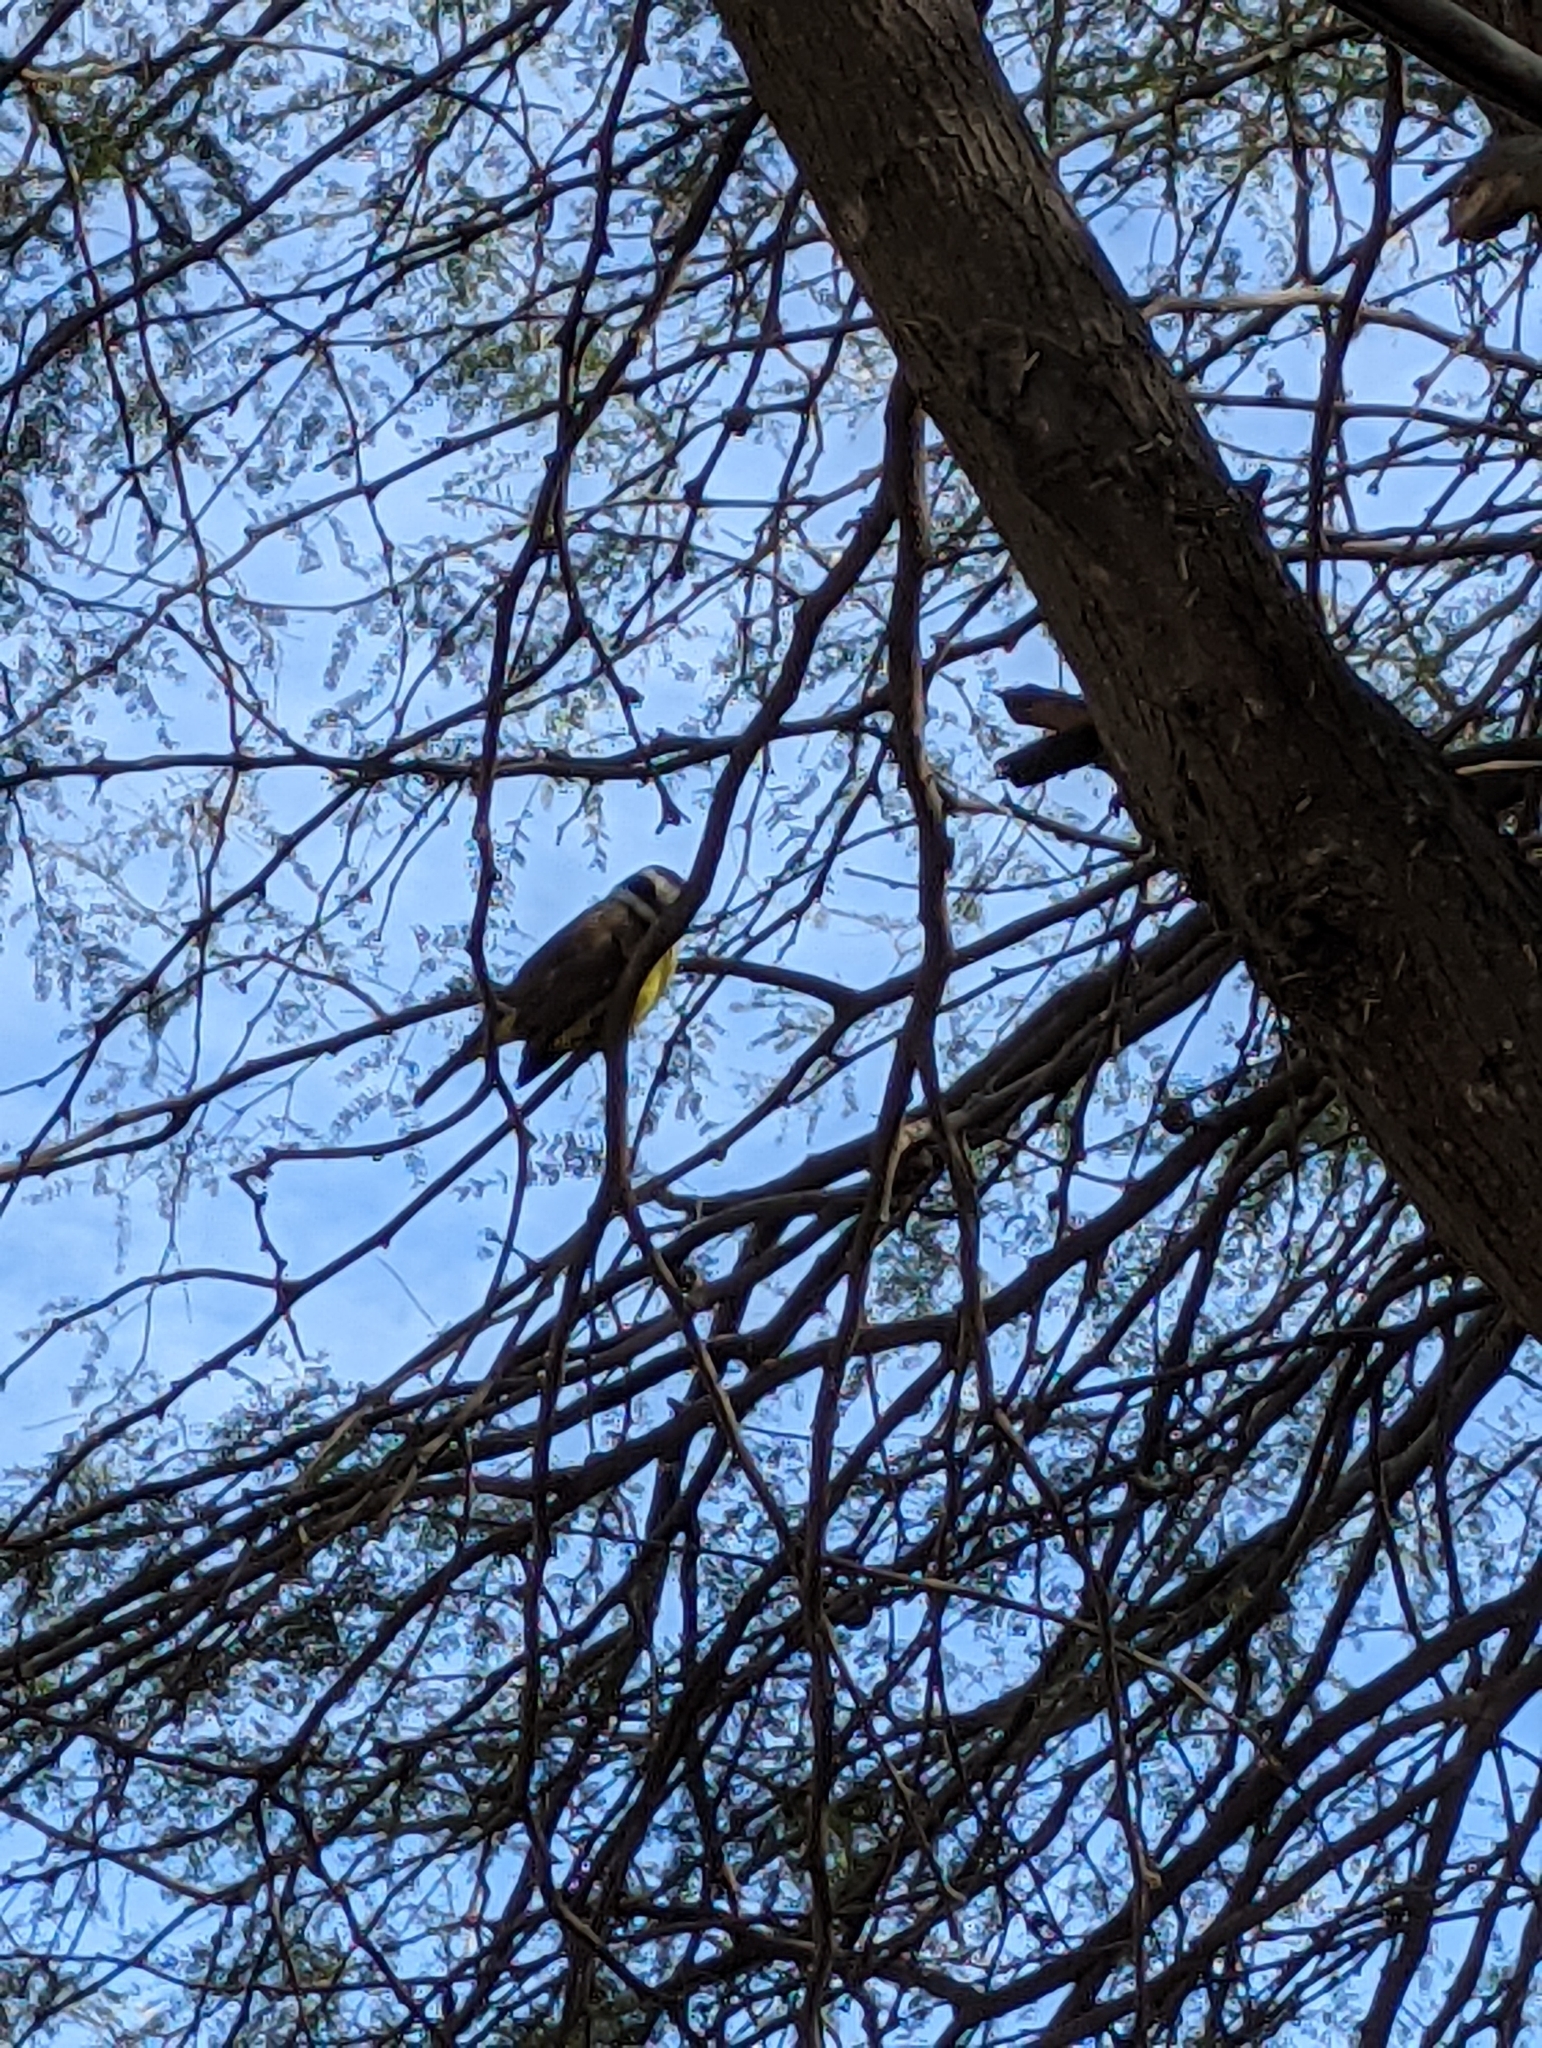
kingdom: Animalia
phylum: Chordata
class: Aves
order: Passeriformes
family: Tyrannidae
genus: Pitangus
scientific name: Pitangus sulphuratus
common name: Great kiskadee
